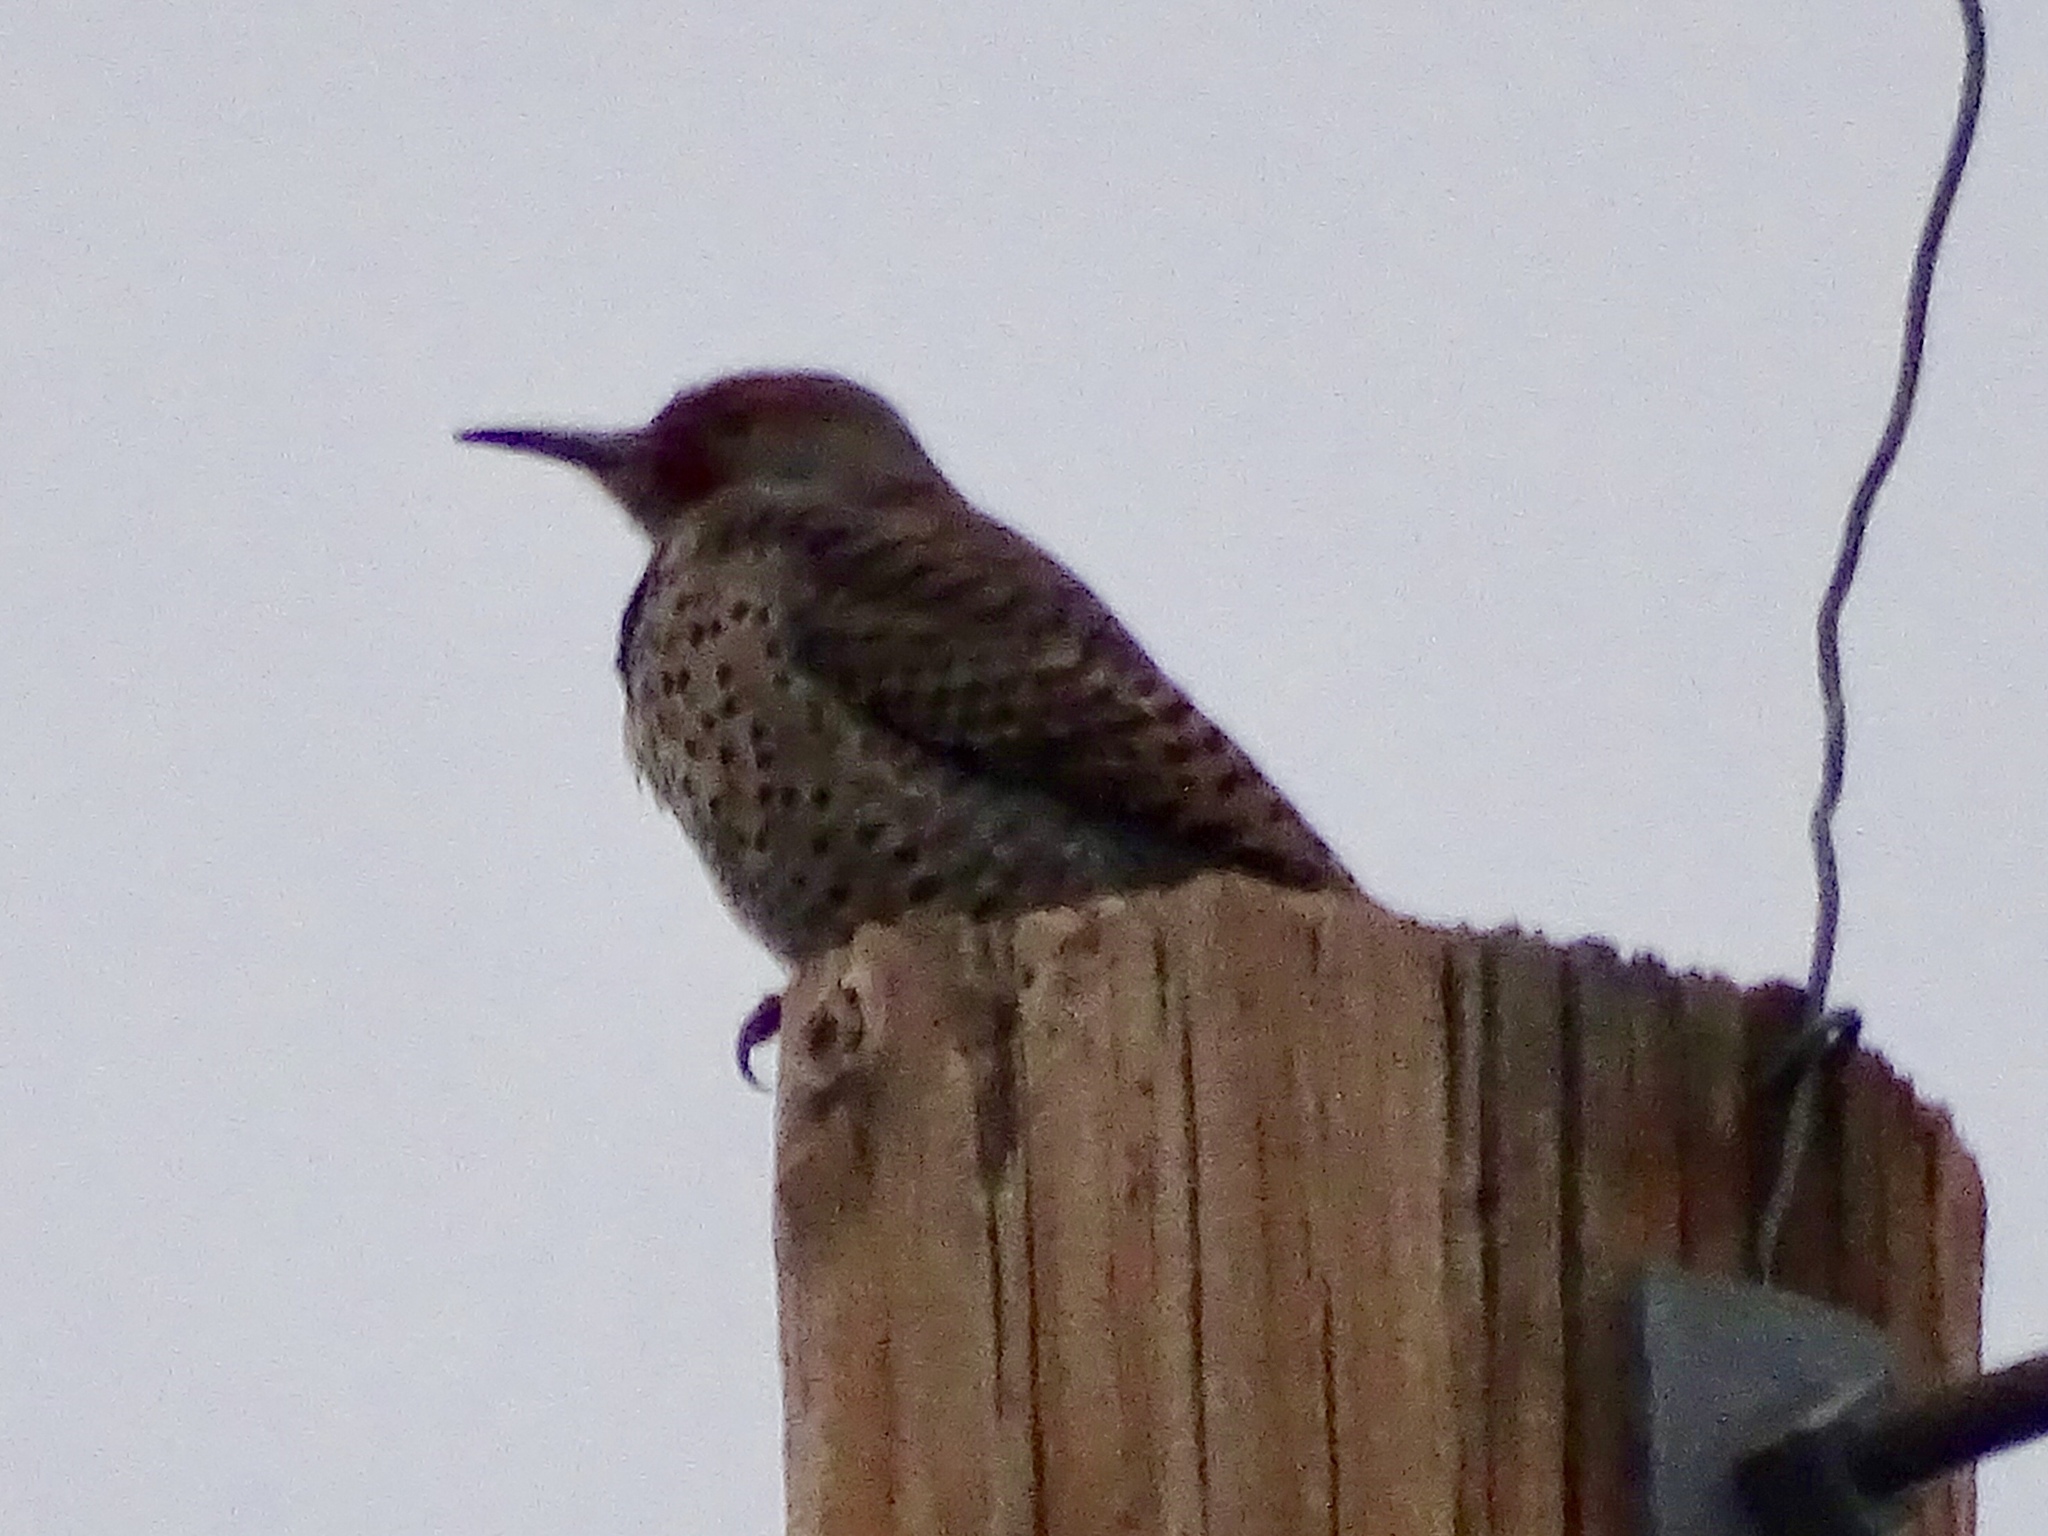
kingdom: Animalia
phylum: Chordata
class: Aves
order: Piciformes
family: Picidae
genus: Colaptes
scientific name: Colaptes auratus
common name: Northern flicker
